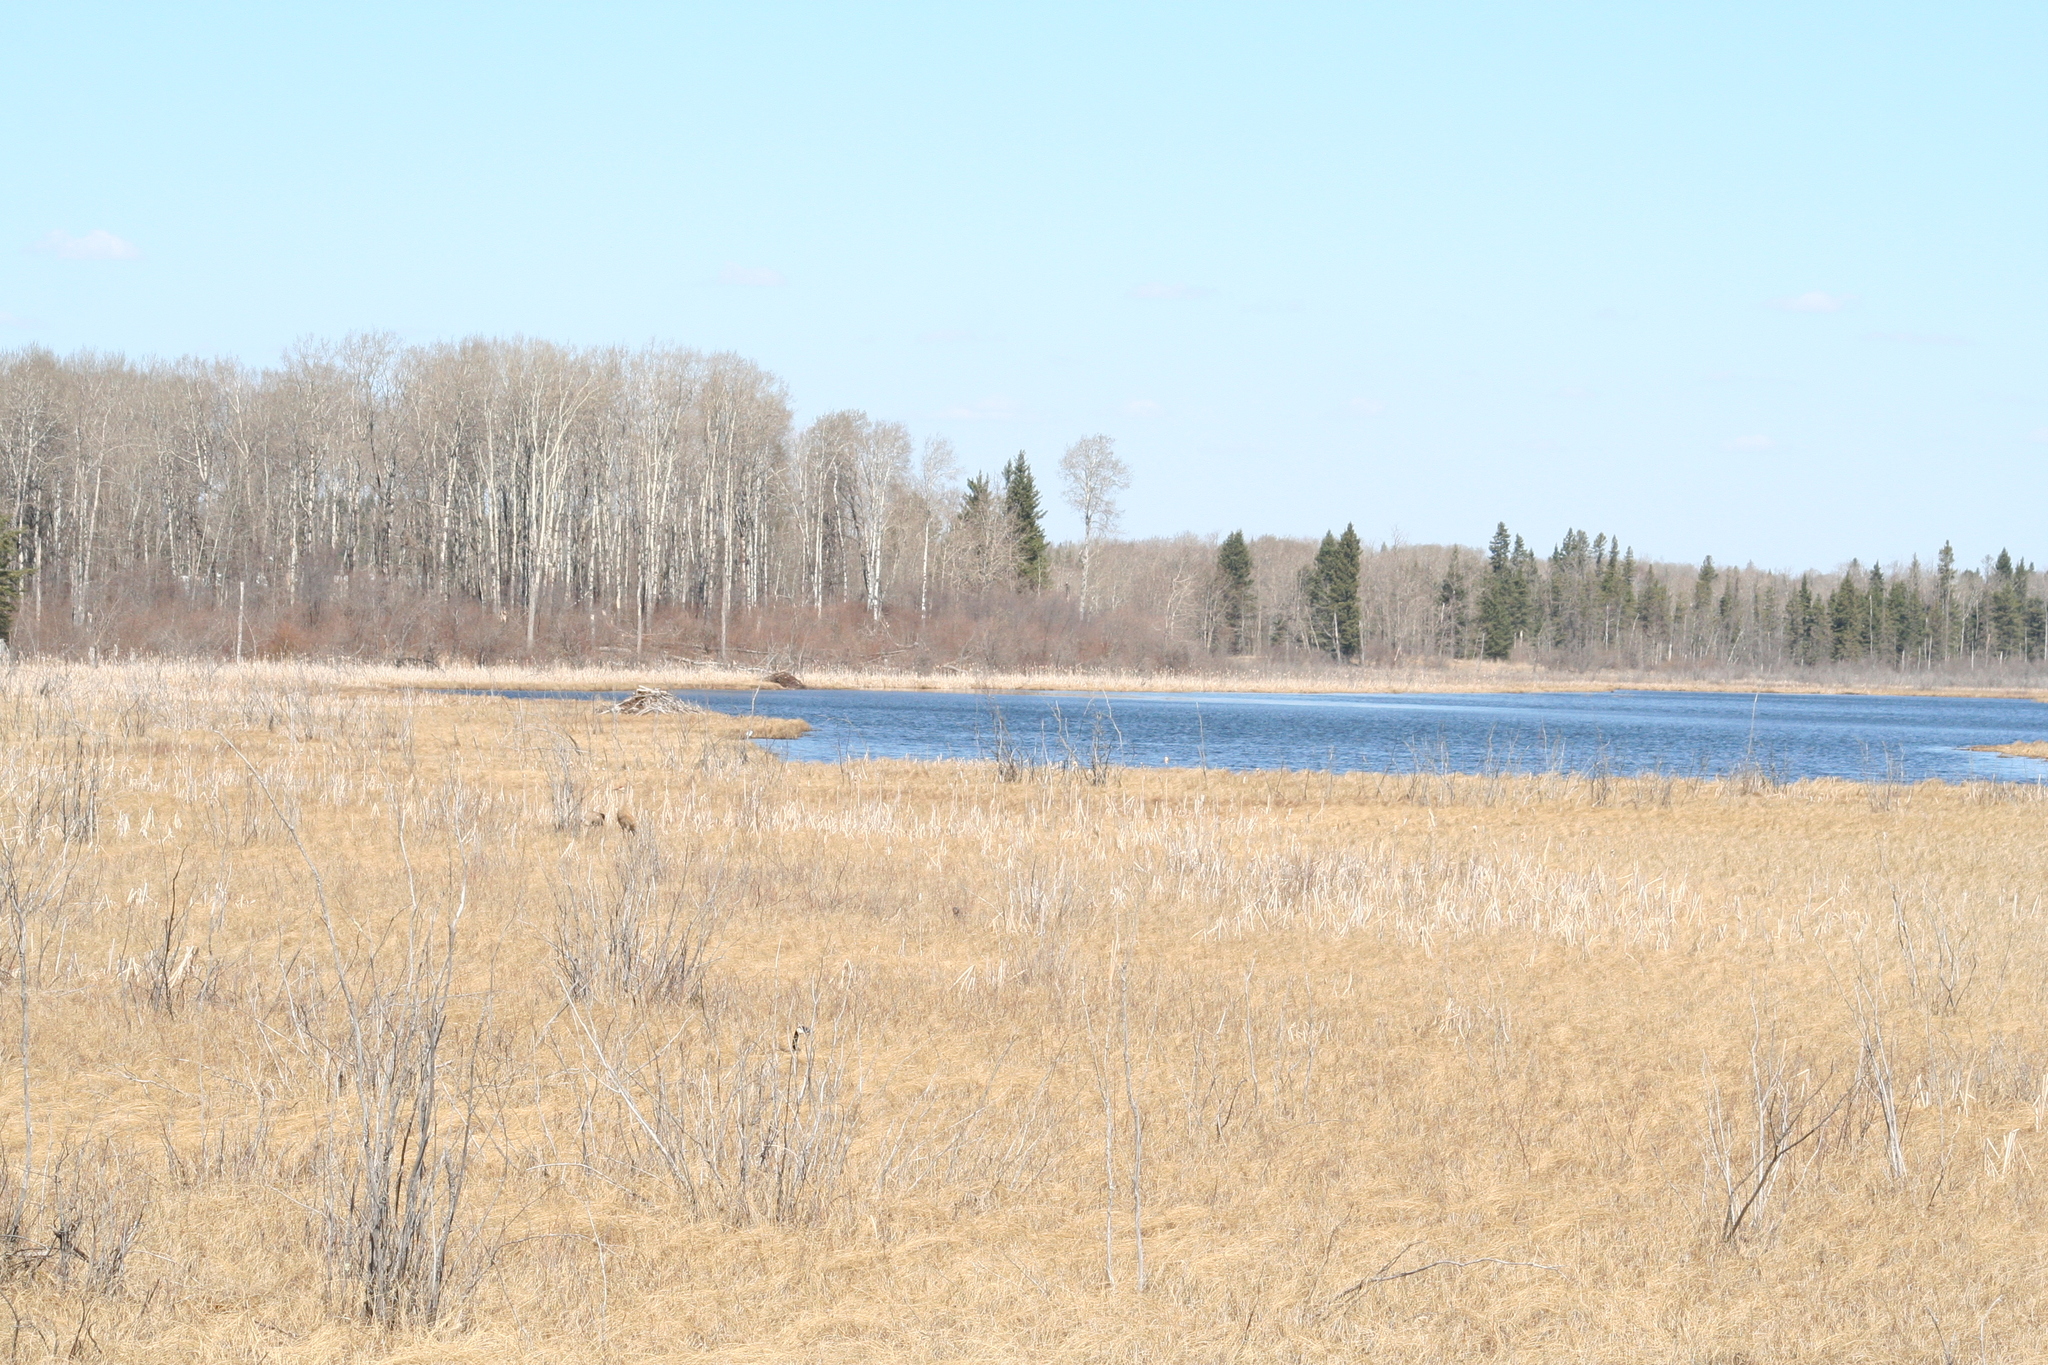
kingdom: Animalia
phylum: Chordata
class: Aves
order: Gruiformes
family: Gruidae
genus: Grus
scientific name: Grus canadensis
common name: Sandhill crane
